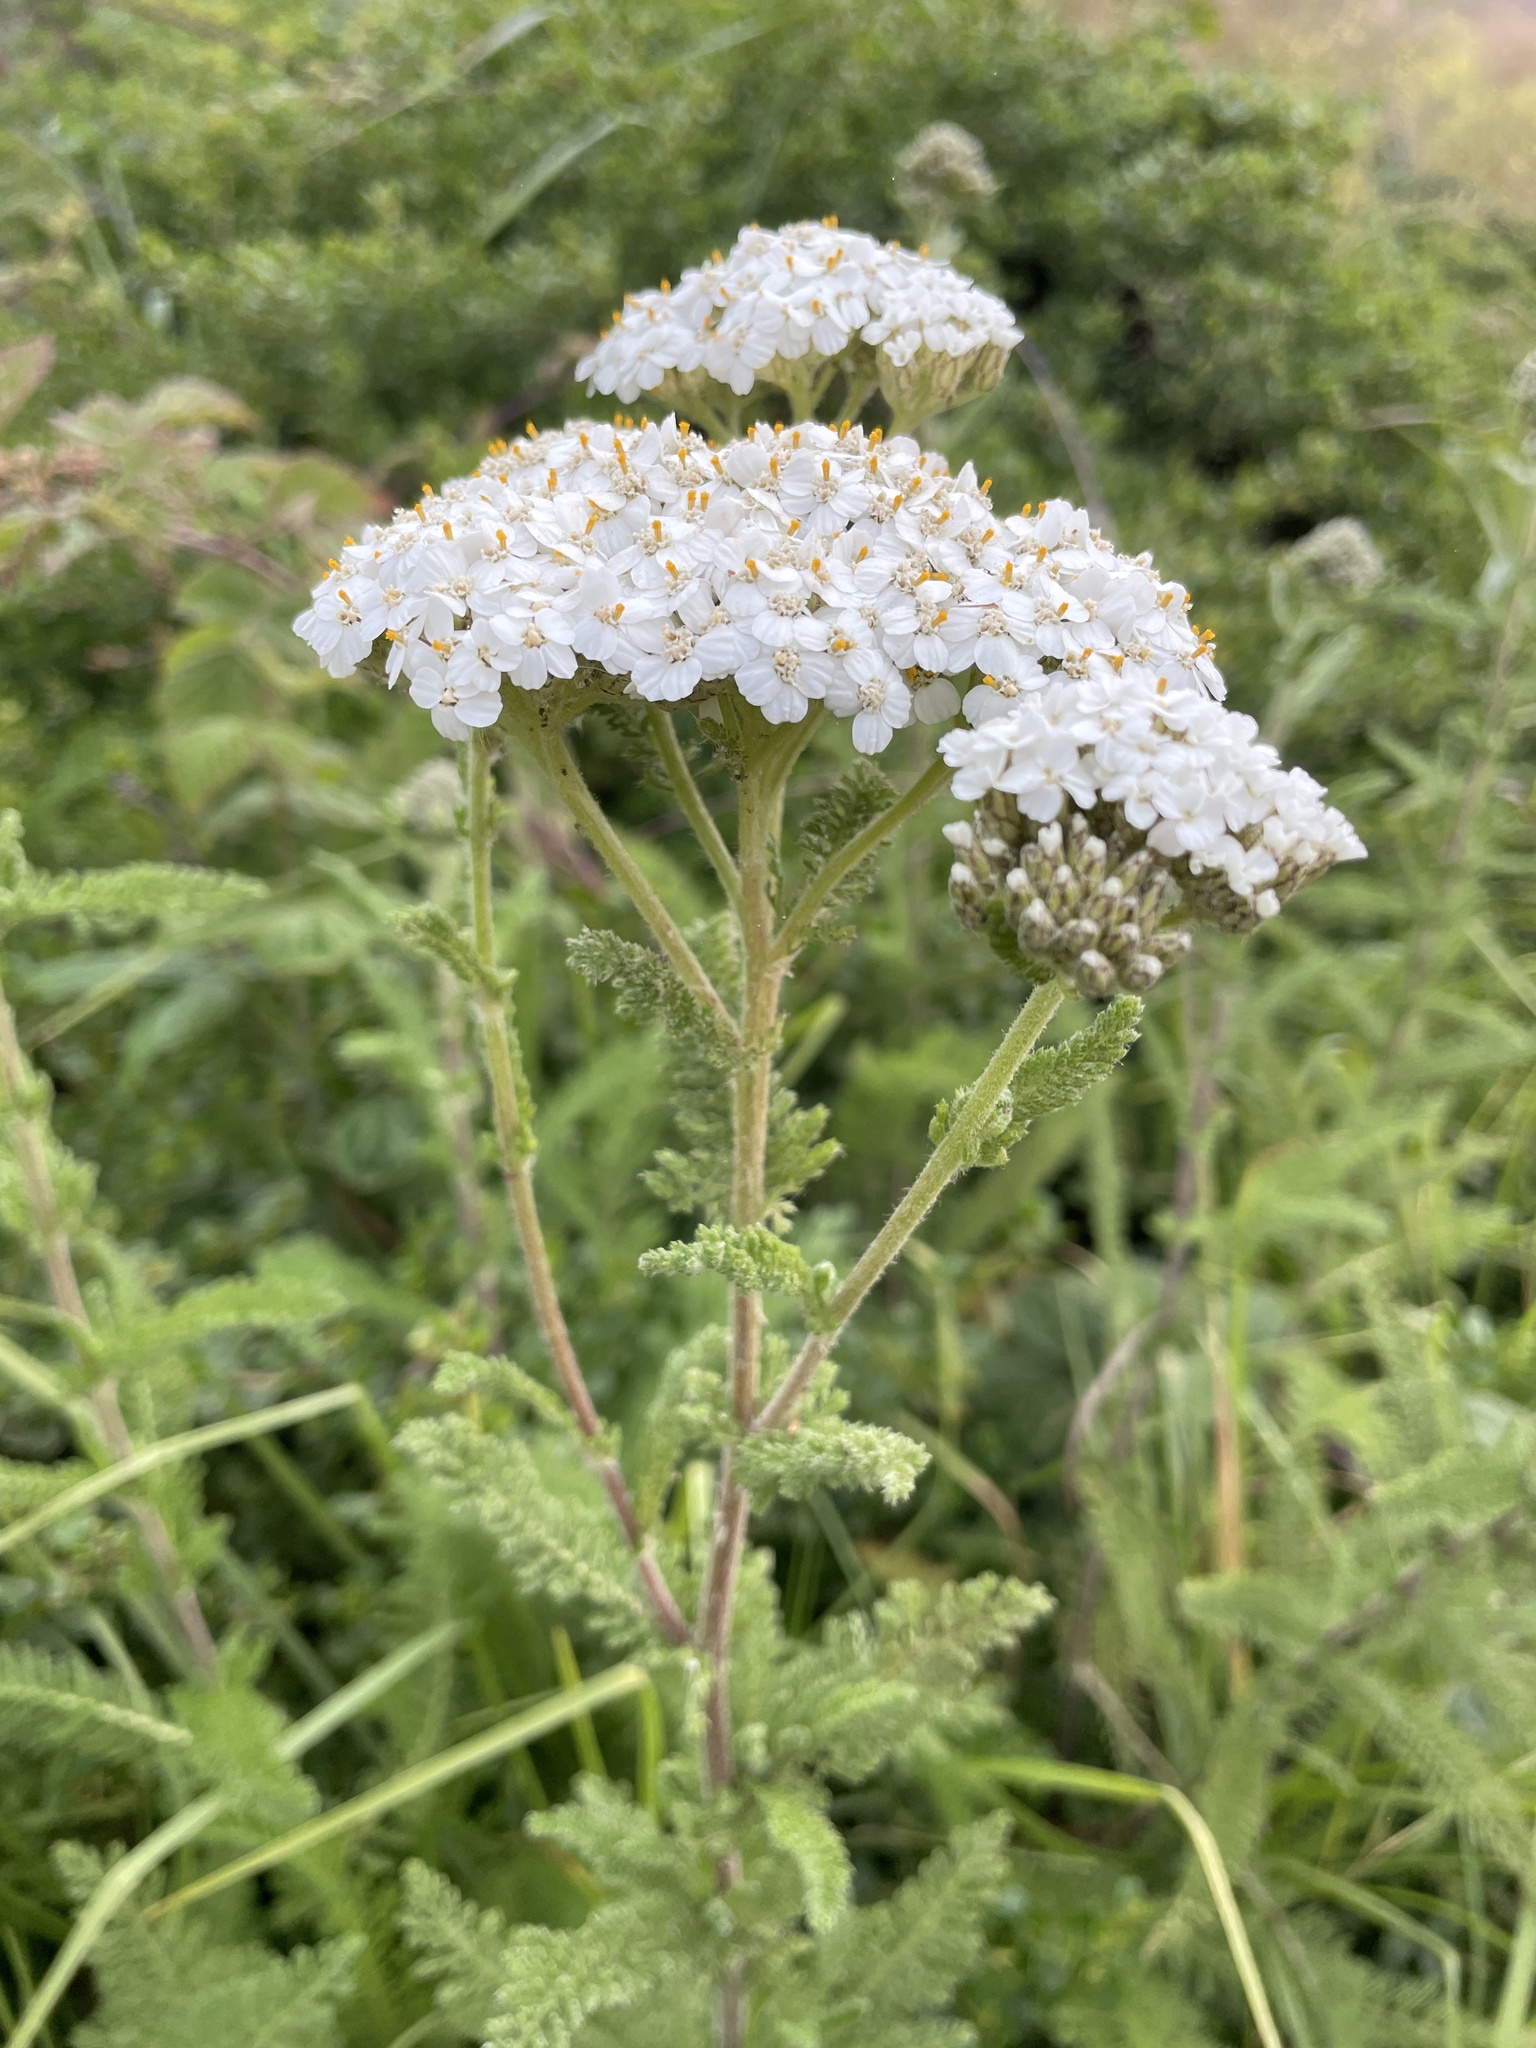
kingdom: Plantae
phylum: Tracheophyta
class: Magnoliopsida
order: Asterales
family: Asteraceae
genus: Achillea
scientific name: Achillea millefolium
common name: Yarrow
